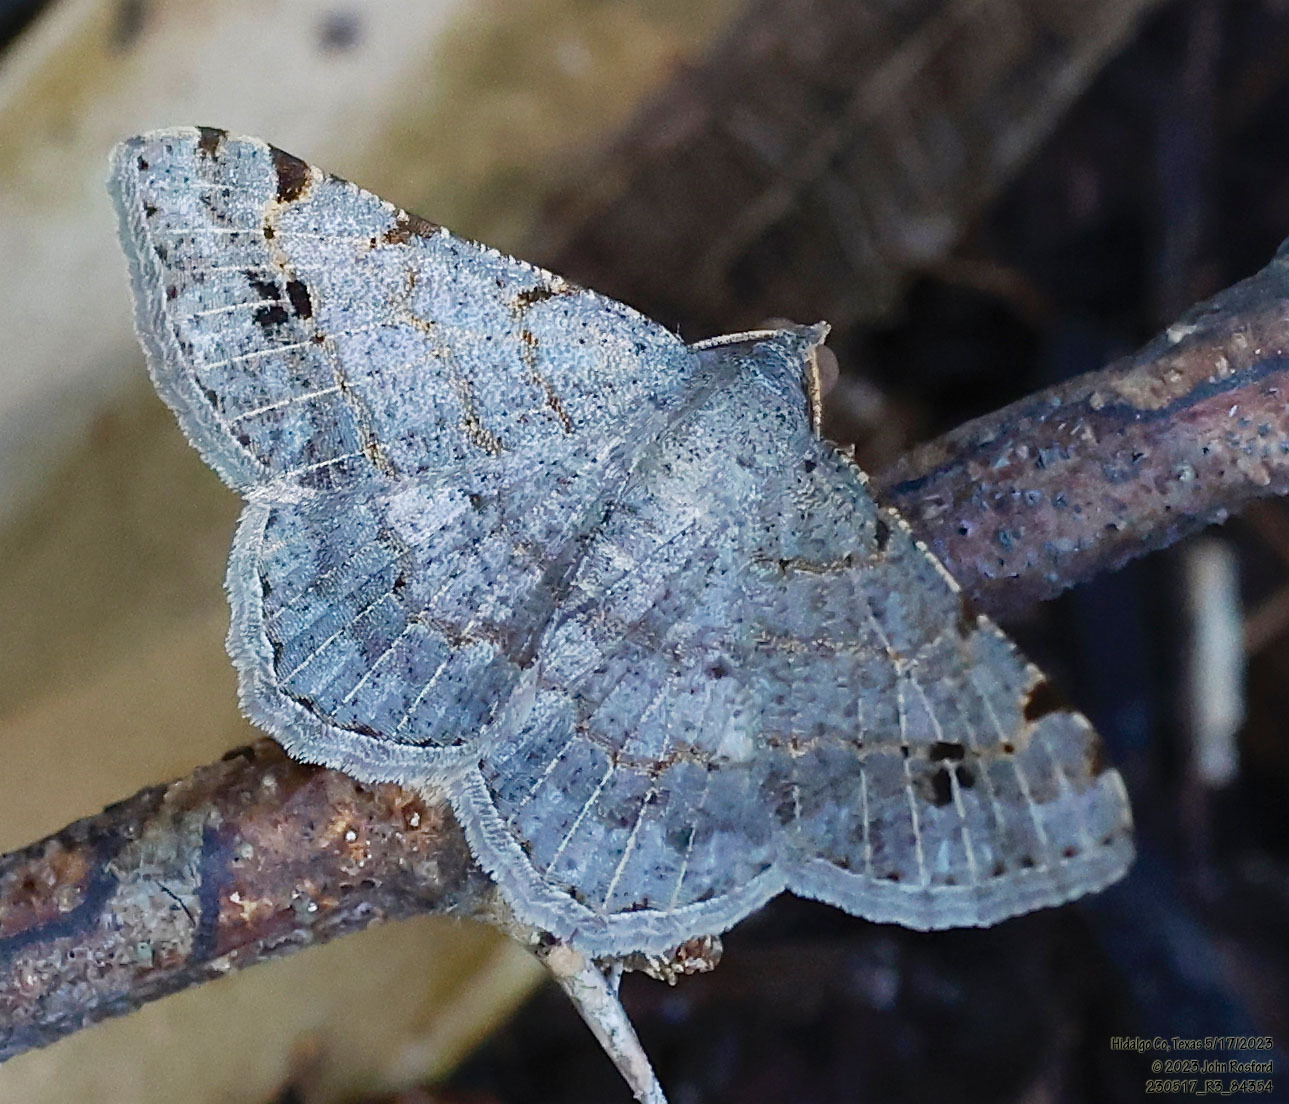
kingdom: Animalia
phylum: Arthropoda
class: Insecta
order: Lepidoptera
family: Geometridae
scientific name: Geometridae
